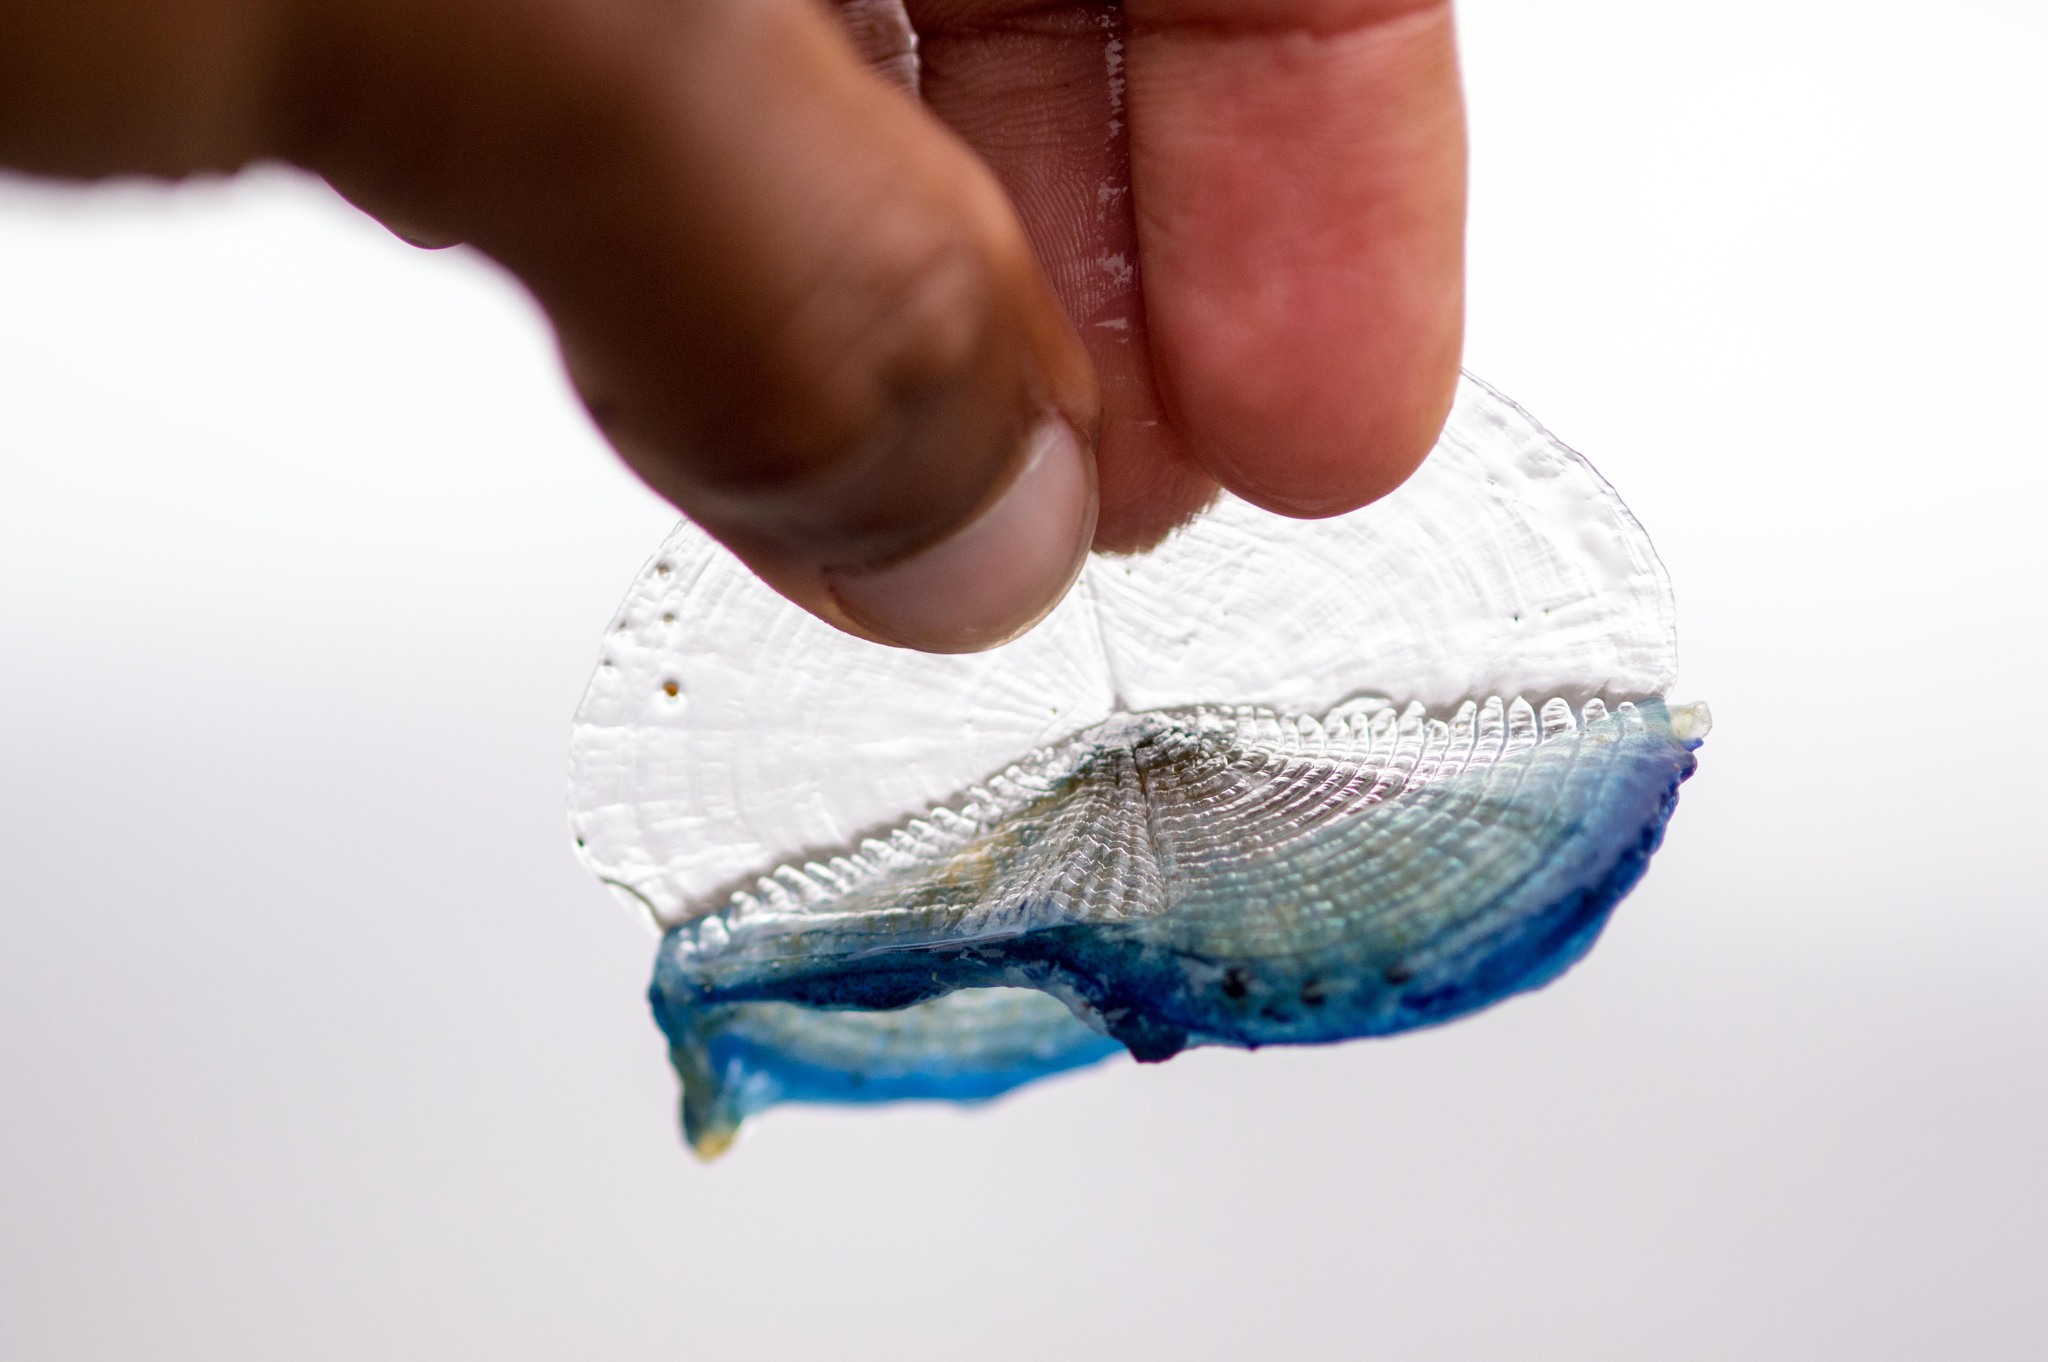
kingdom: Animalia
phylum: Cnidaria
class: Hydrozoa
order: Anthoathecata
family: Porpitidae
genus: Velella
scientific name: Velella velella
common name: By-the-wind-sailor
